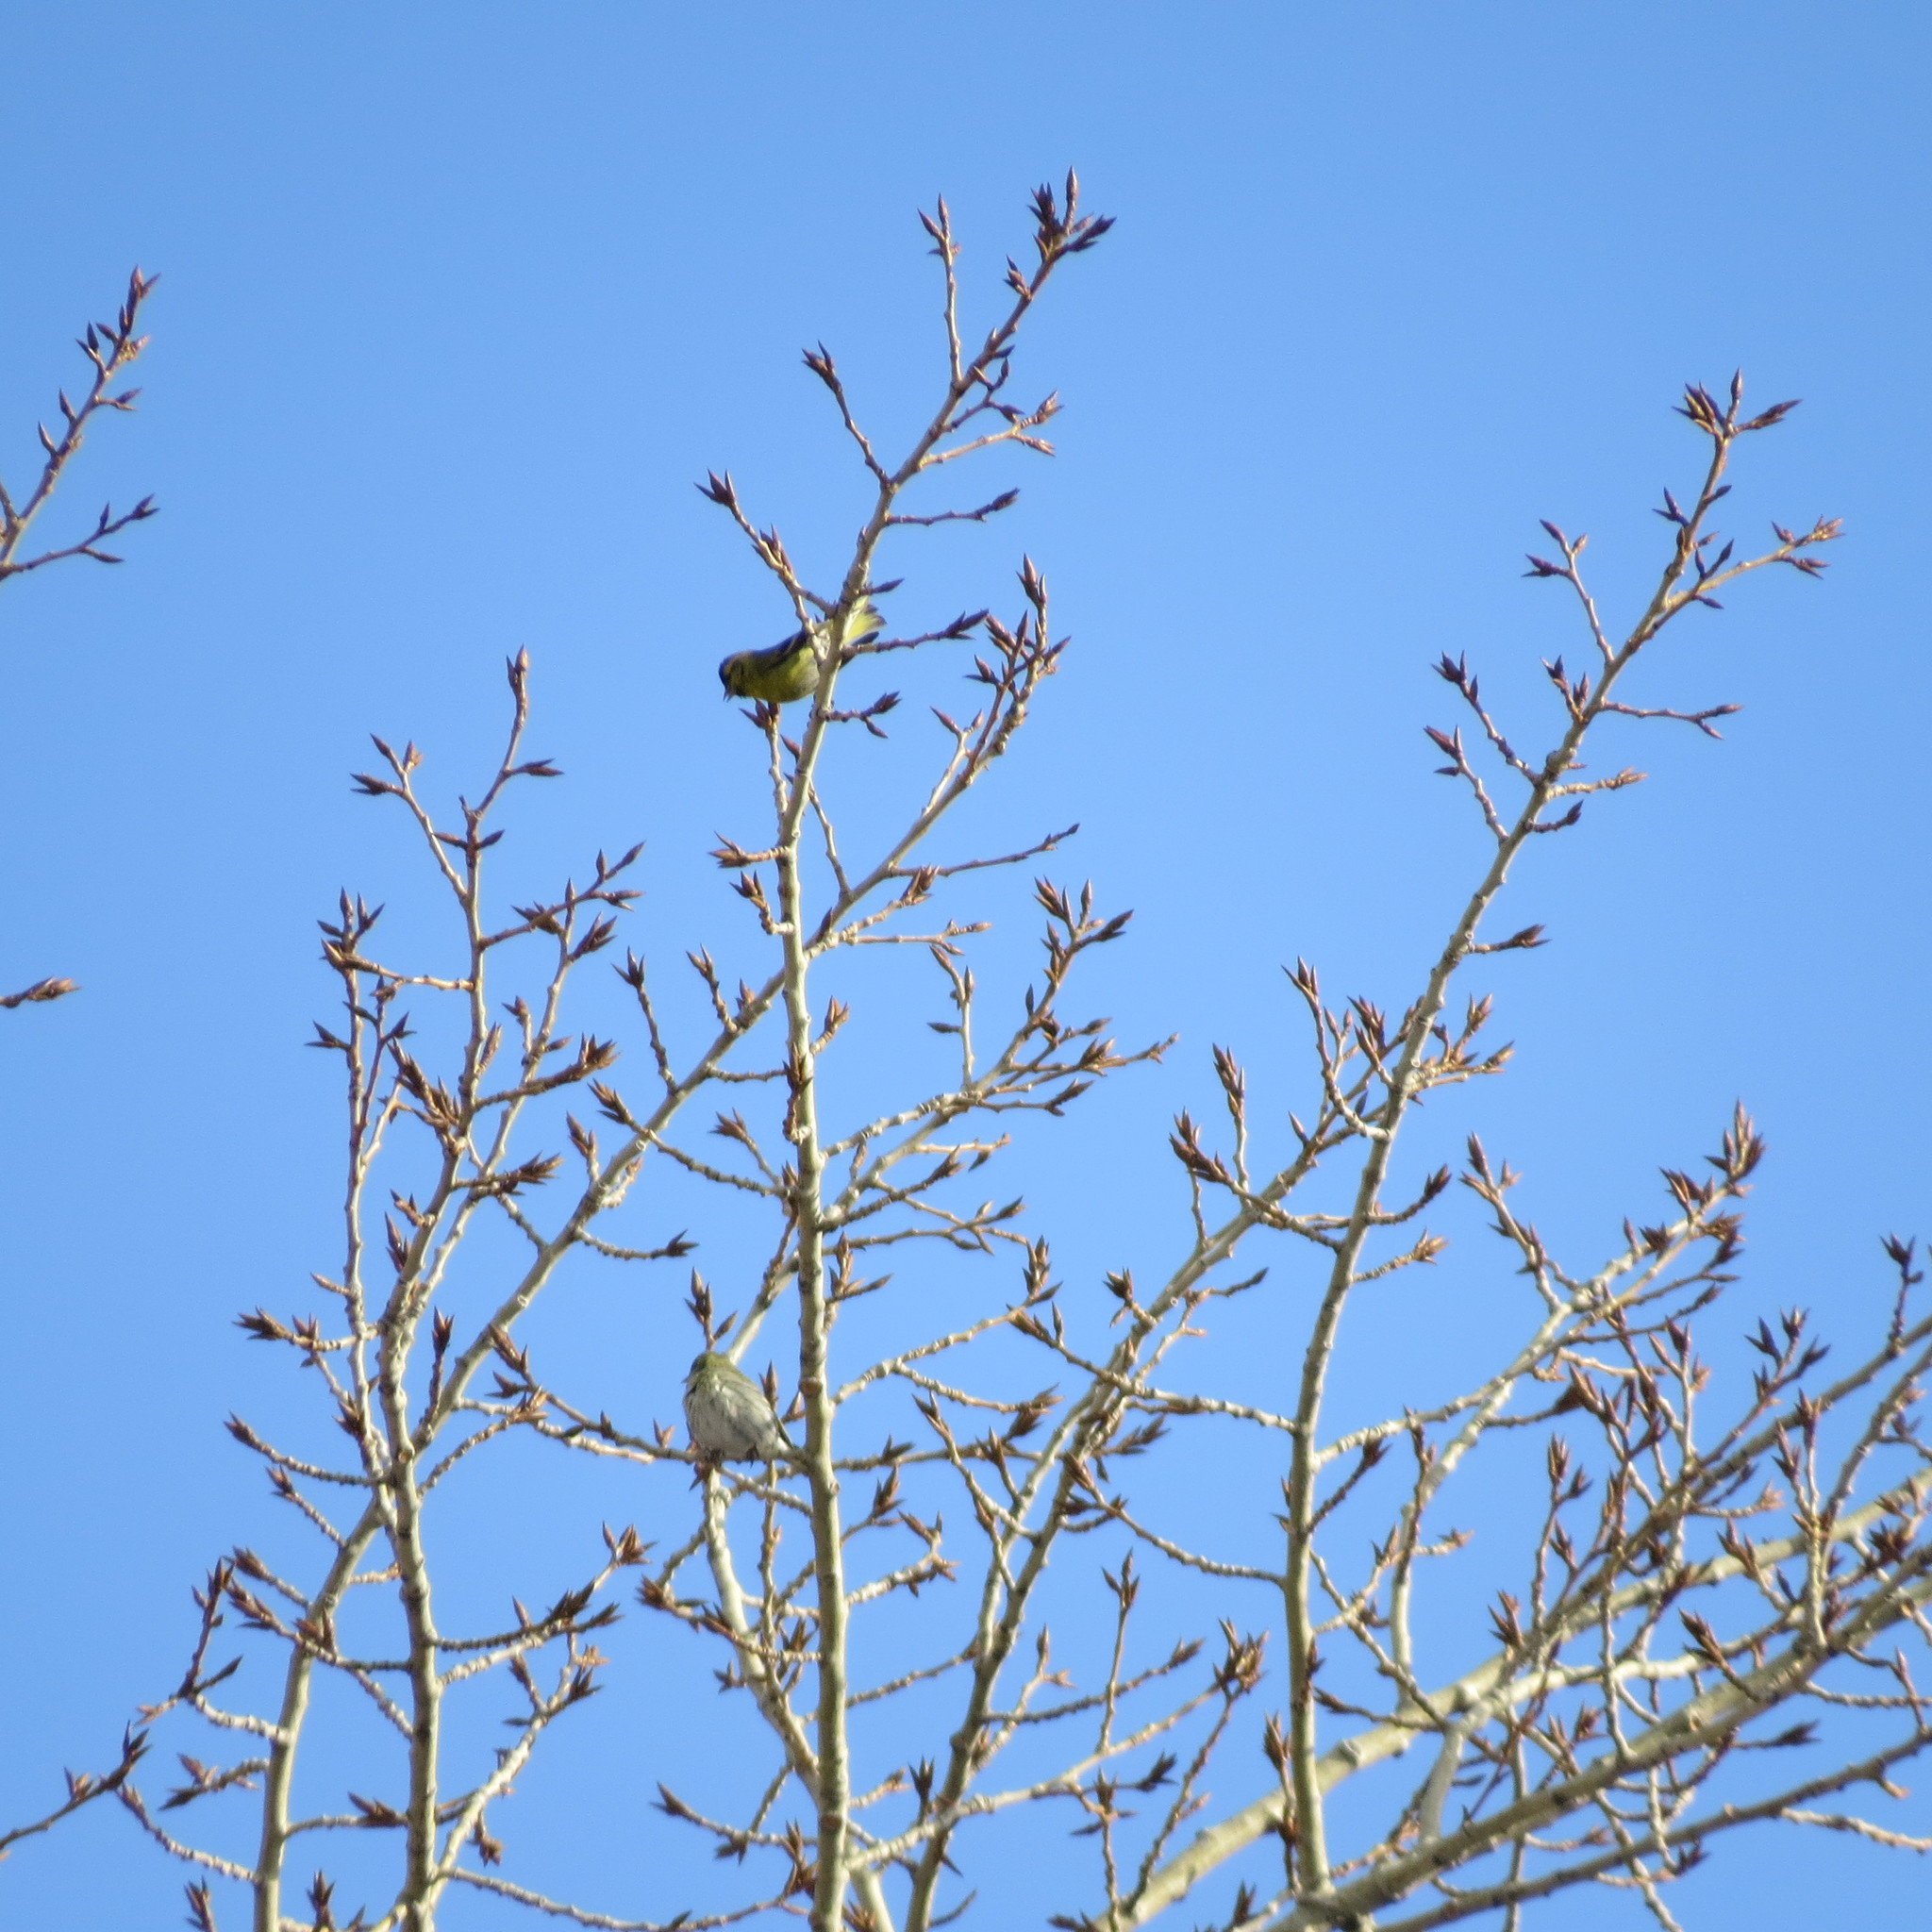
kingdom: Animalia
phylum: Chordata
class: Aves
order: Passeriformes
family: Fringillidae
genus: Spinus
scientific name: Spinus spinus
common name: Eurasian siskin
